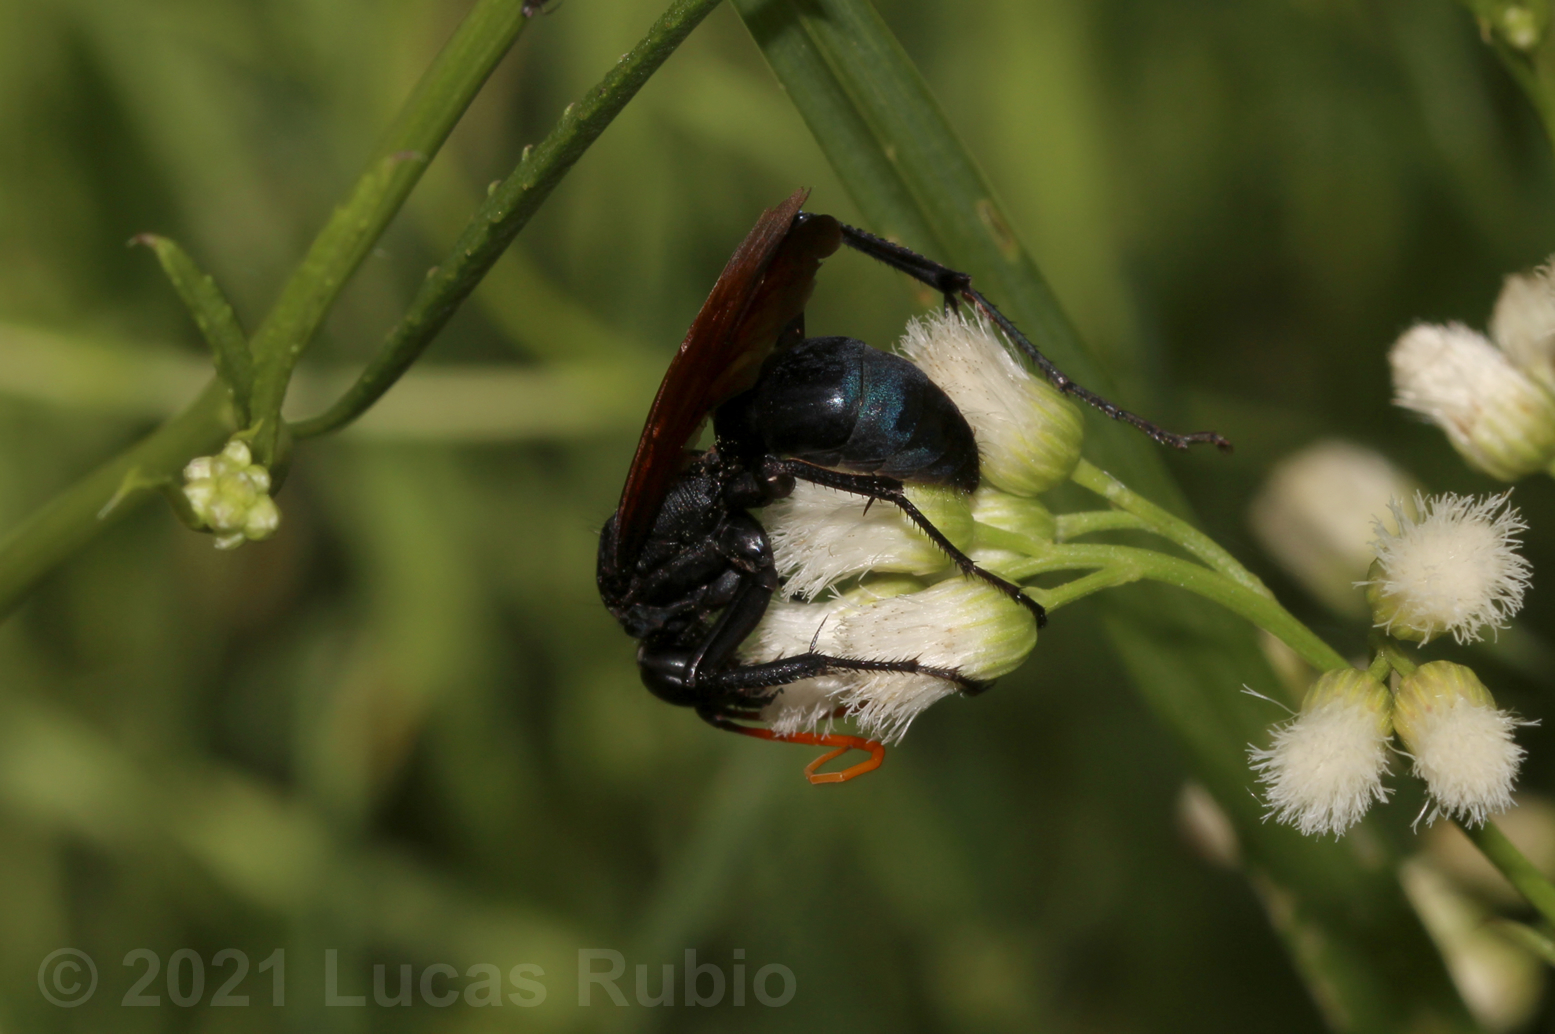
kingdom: Animalia
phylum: Arthropoda
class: Insecta
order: Hymenoptera
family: Pompilidae
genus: Entypus
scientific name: Entypus ferruginipennis
